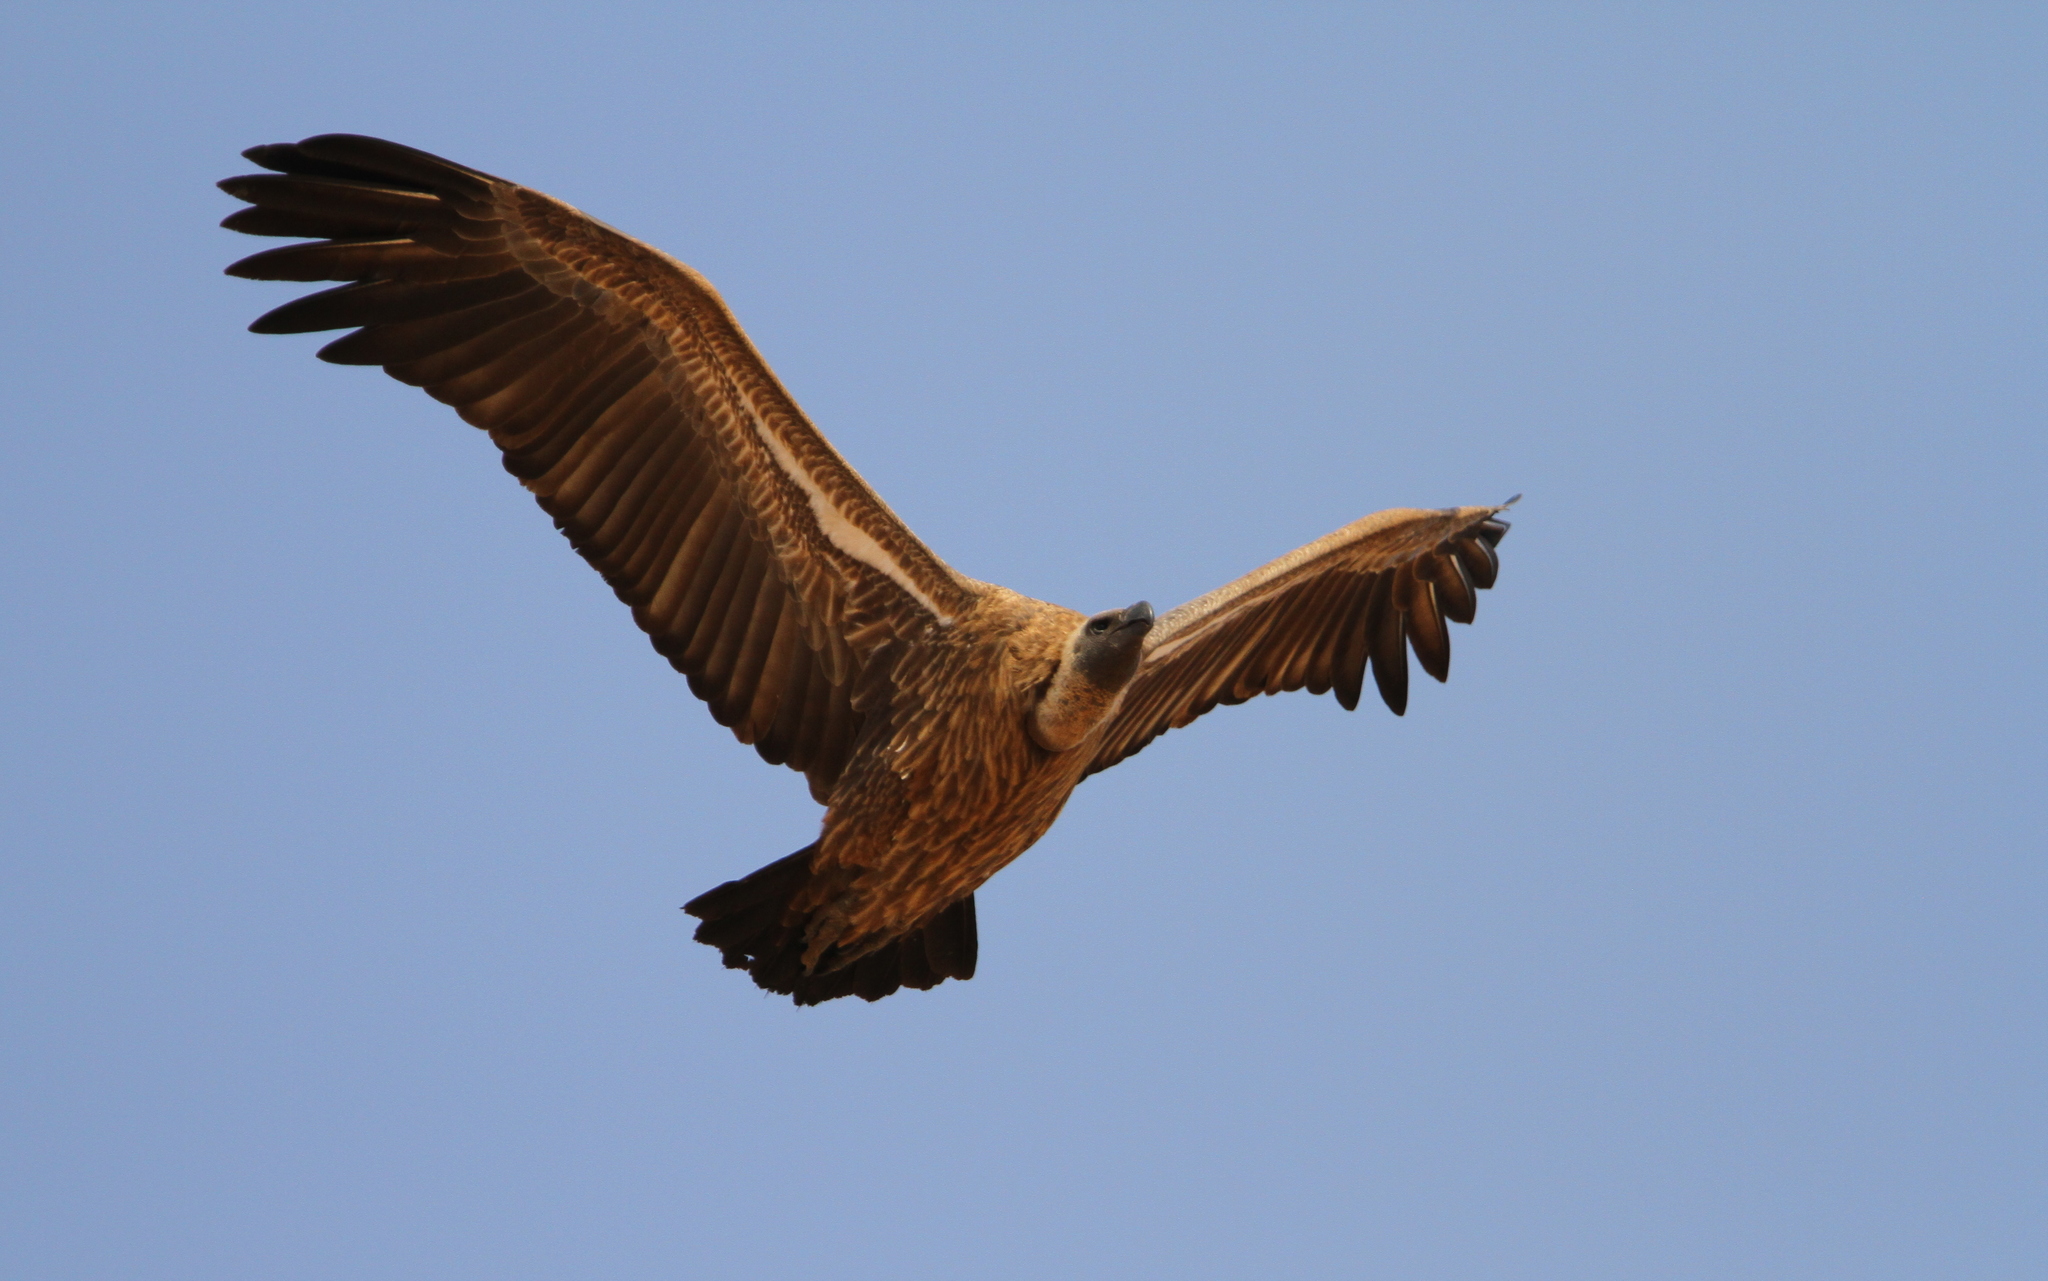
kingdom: Animalia
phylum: Chordata
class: Aves
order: Accipitriformes
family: Accipitridae
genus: Gyps
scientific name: Gyps africanus
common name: White-backed vulture
